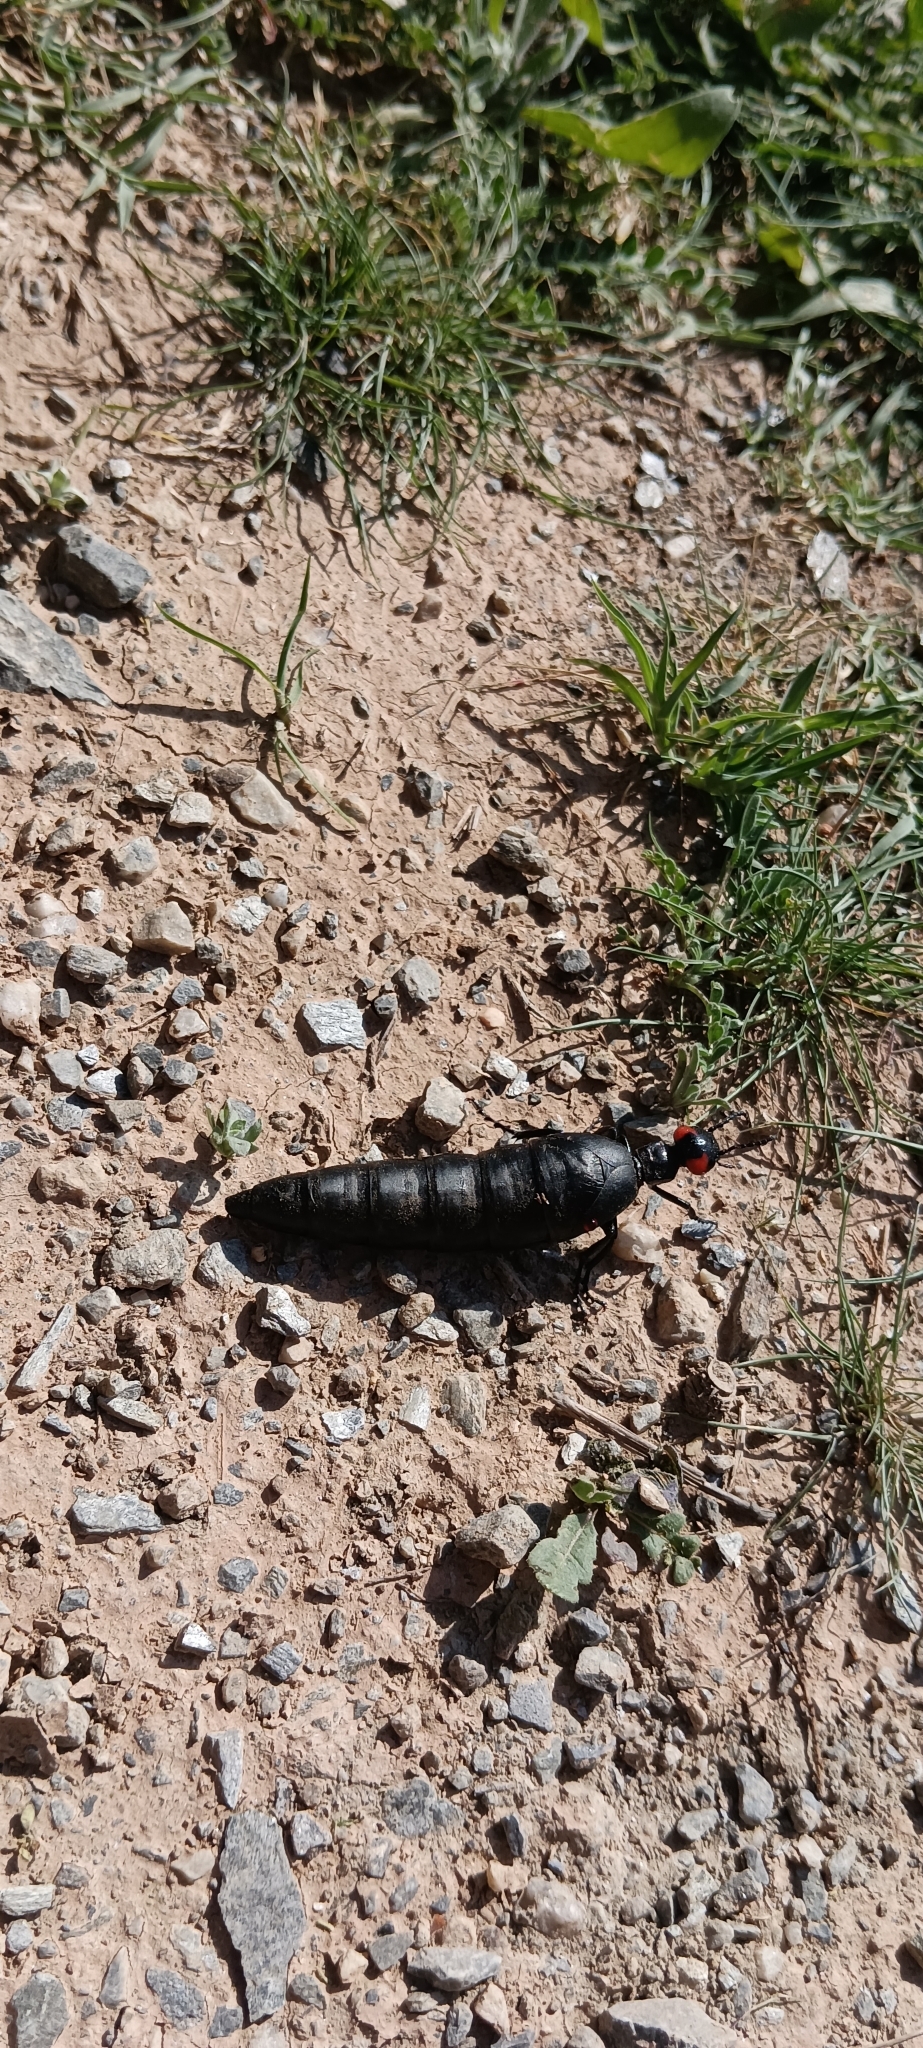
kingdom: Animalia
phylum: Arthropoda
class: Insecta
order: Coleoptera
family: Meloidae
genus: Berberomeloe
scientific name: Berberomeloe insignis
